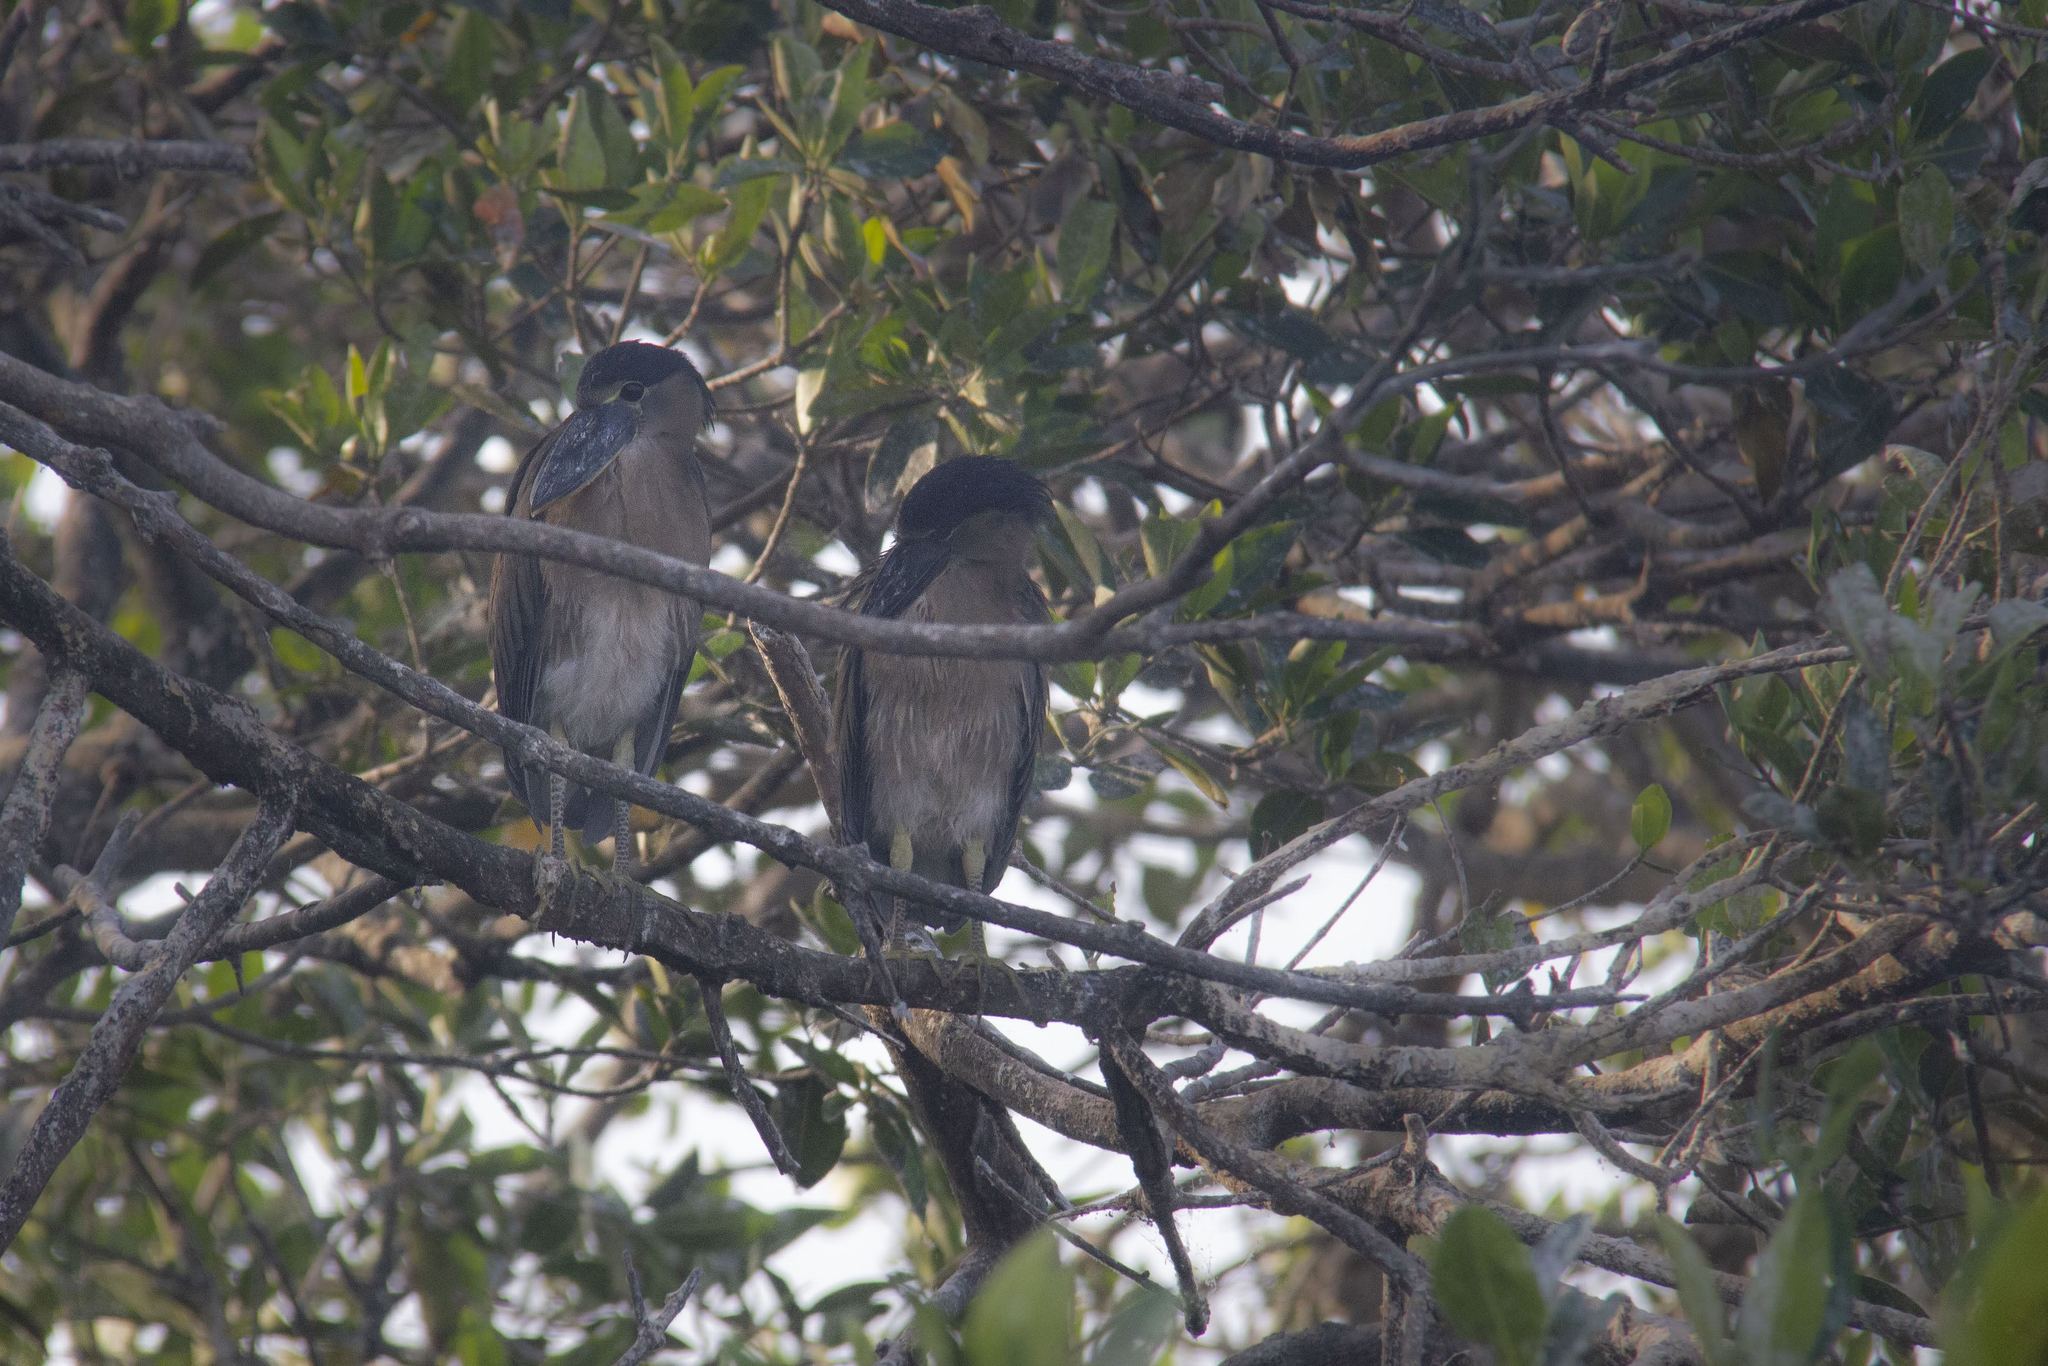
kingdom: Animalia
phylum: Chordata
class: Aves
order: Pelecaniformes
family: Ardeidae
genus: Cochlearius
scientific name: Cochlearius cochlearius
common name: Boat-billed heron
